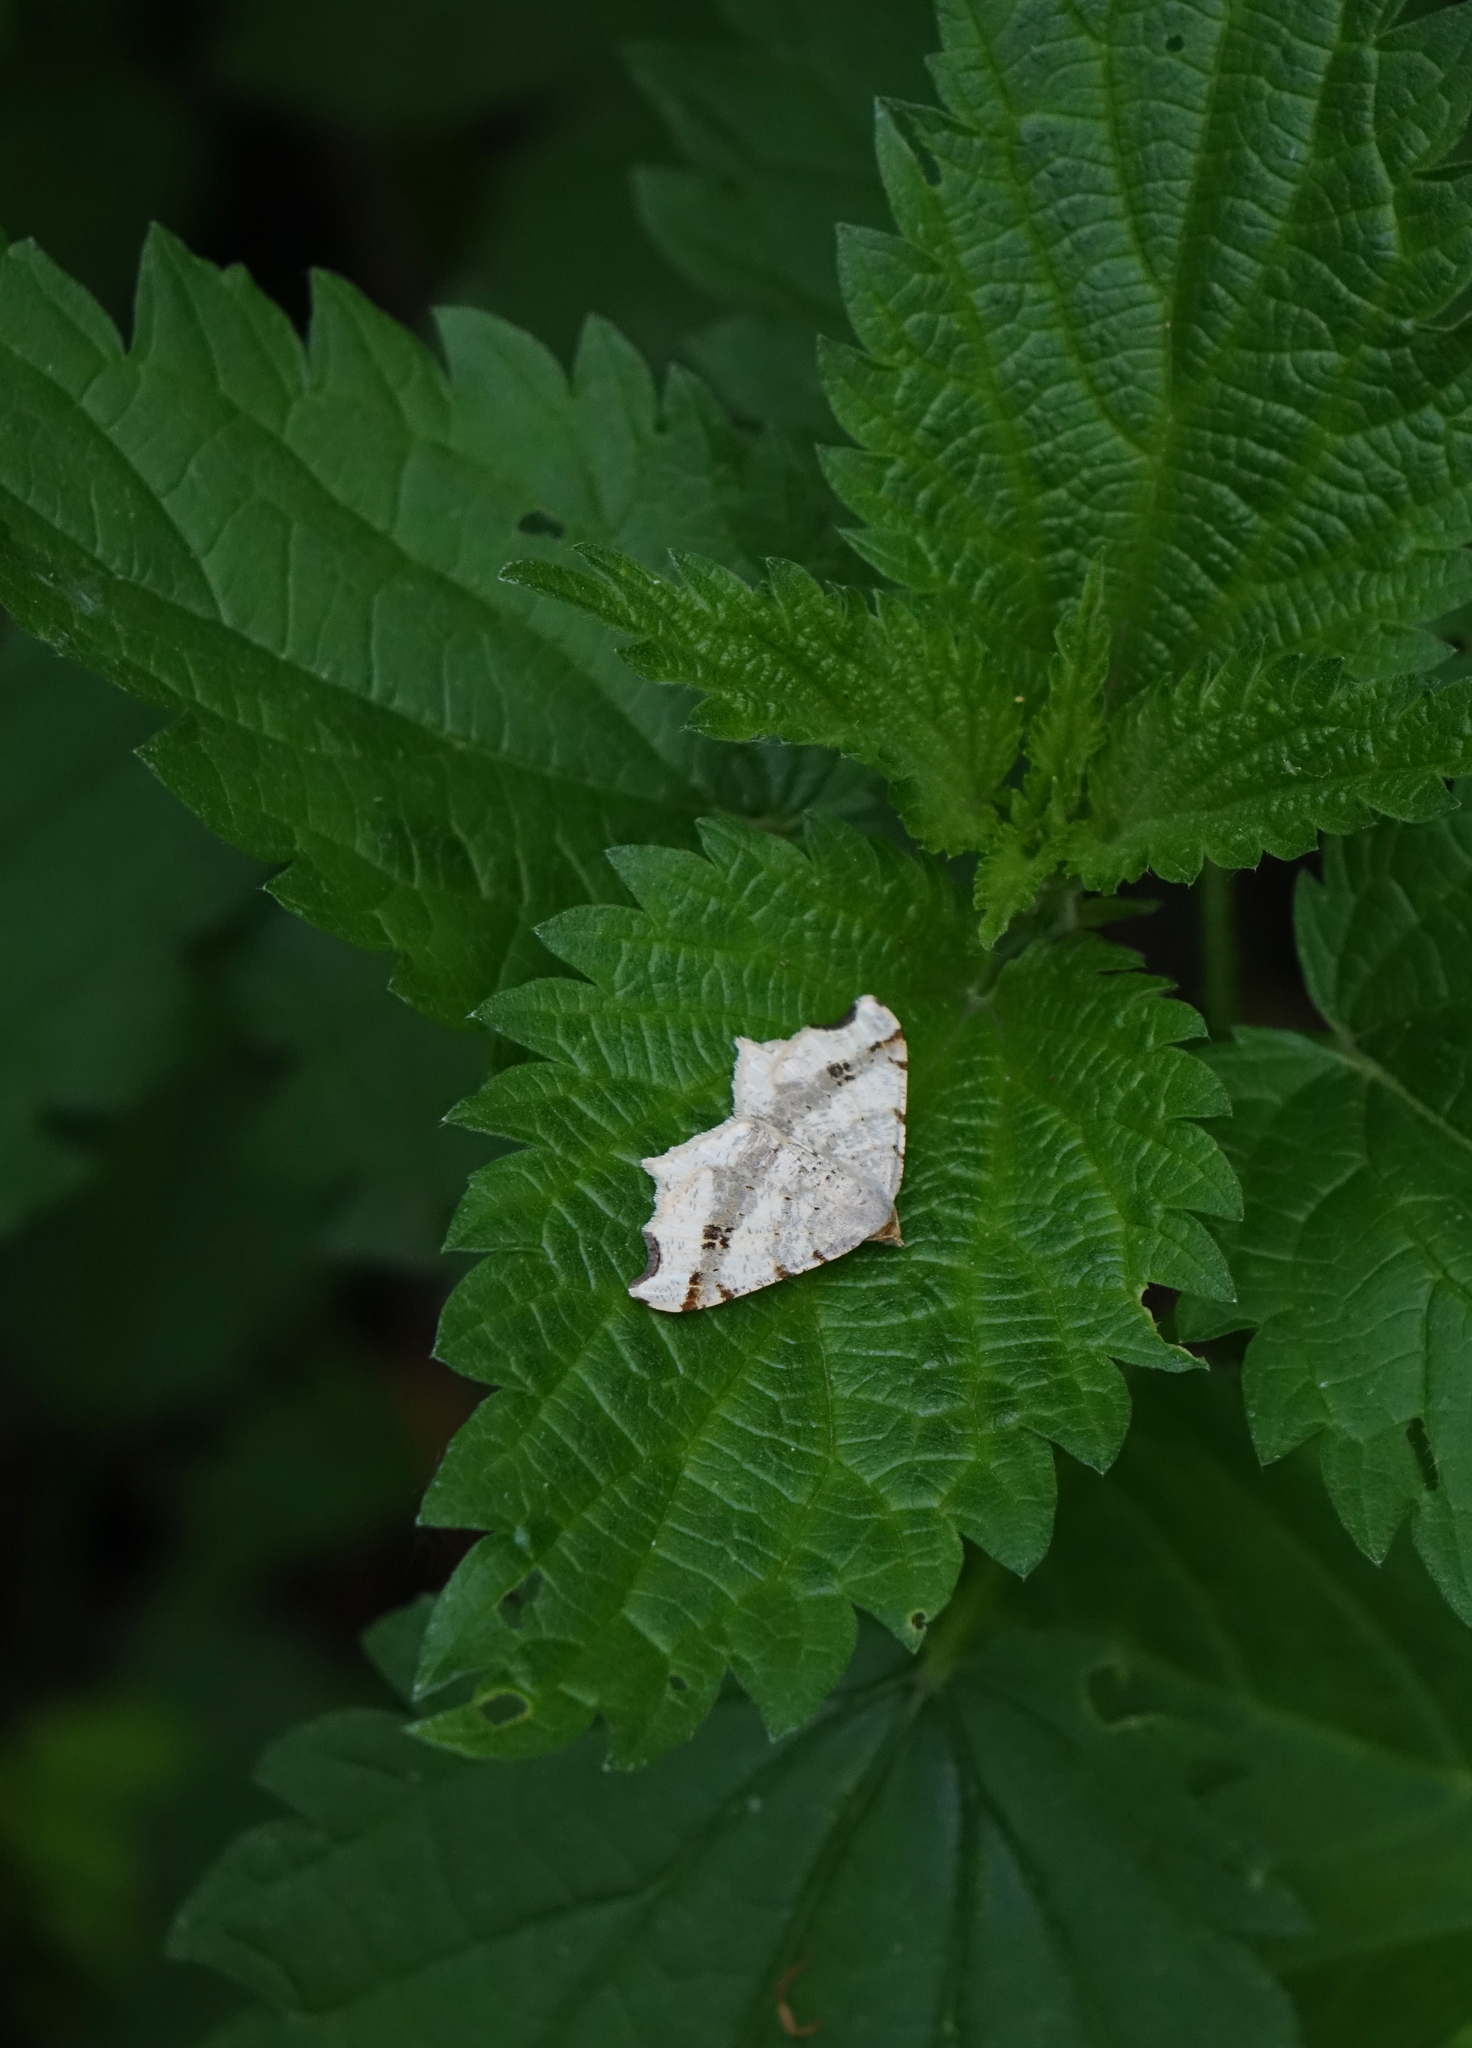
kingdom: Plantae
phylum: Tracheophyta
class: Magnoliopsida
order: Rosales
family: Urticaceae
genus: Urtica
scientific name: Urtica dioica
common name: Common nettle
